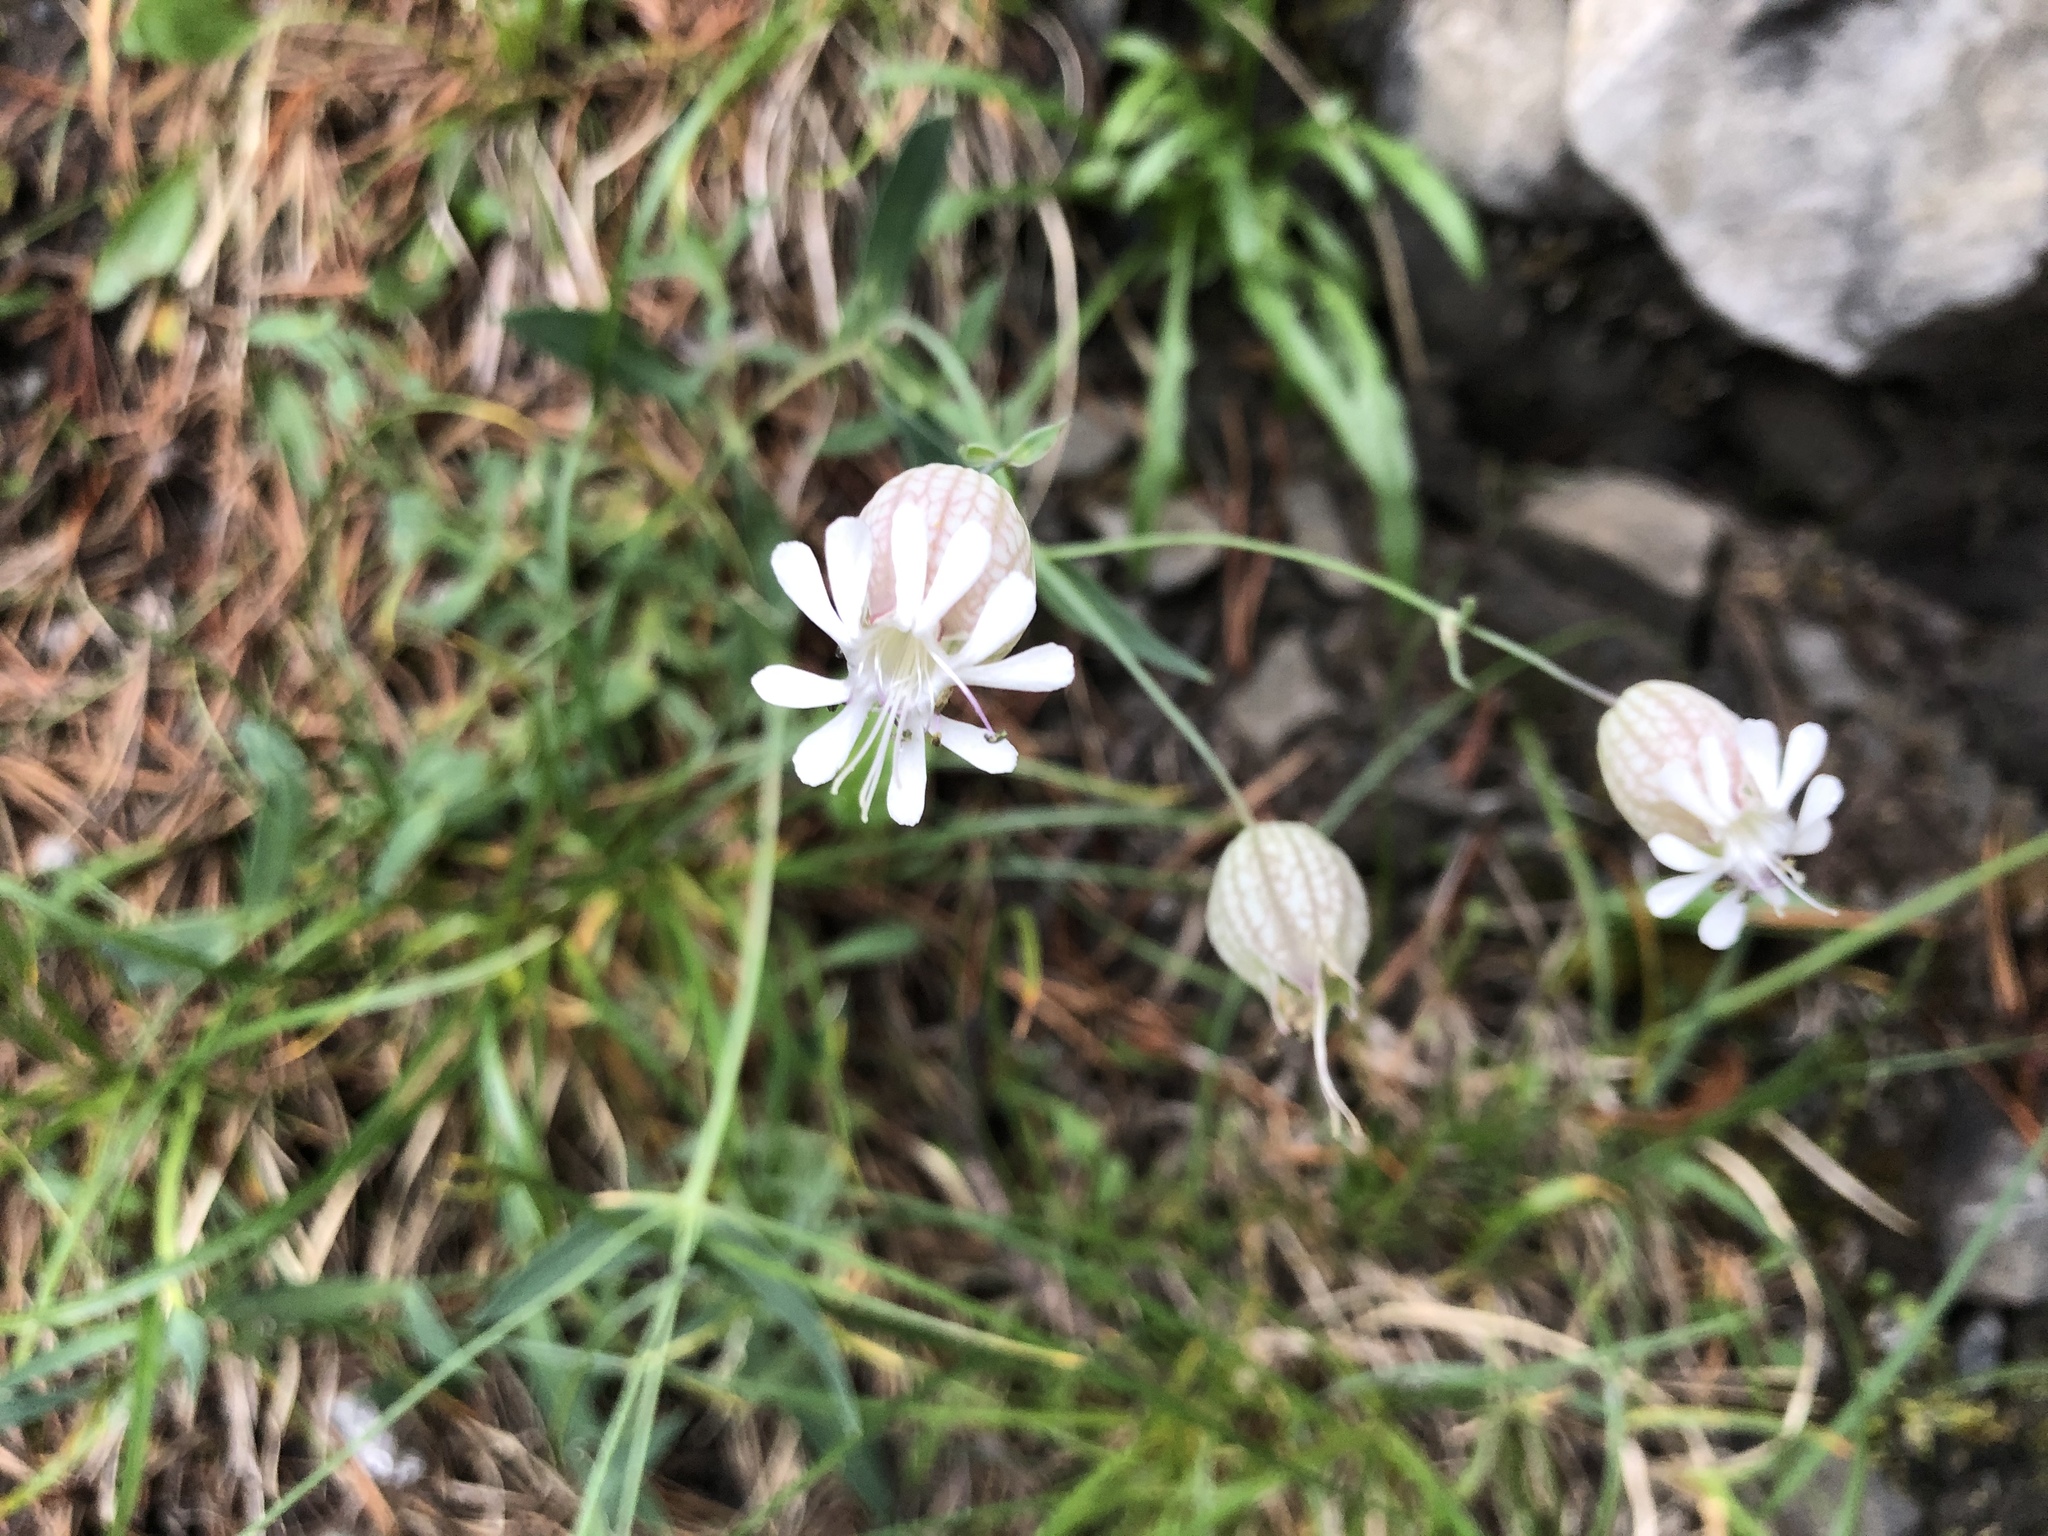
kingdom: Plantae
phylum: Tracheophyta
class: Magnoliopsida
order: Caryophyllales
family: Caryophyllaceae
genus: Silene
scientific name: Silene vulgaris
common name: Bladder campion
